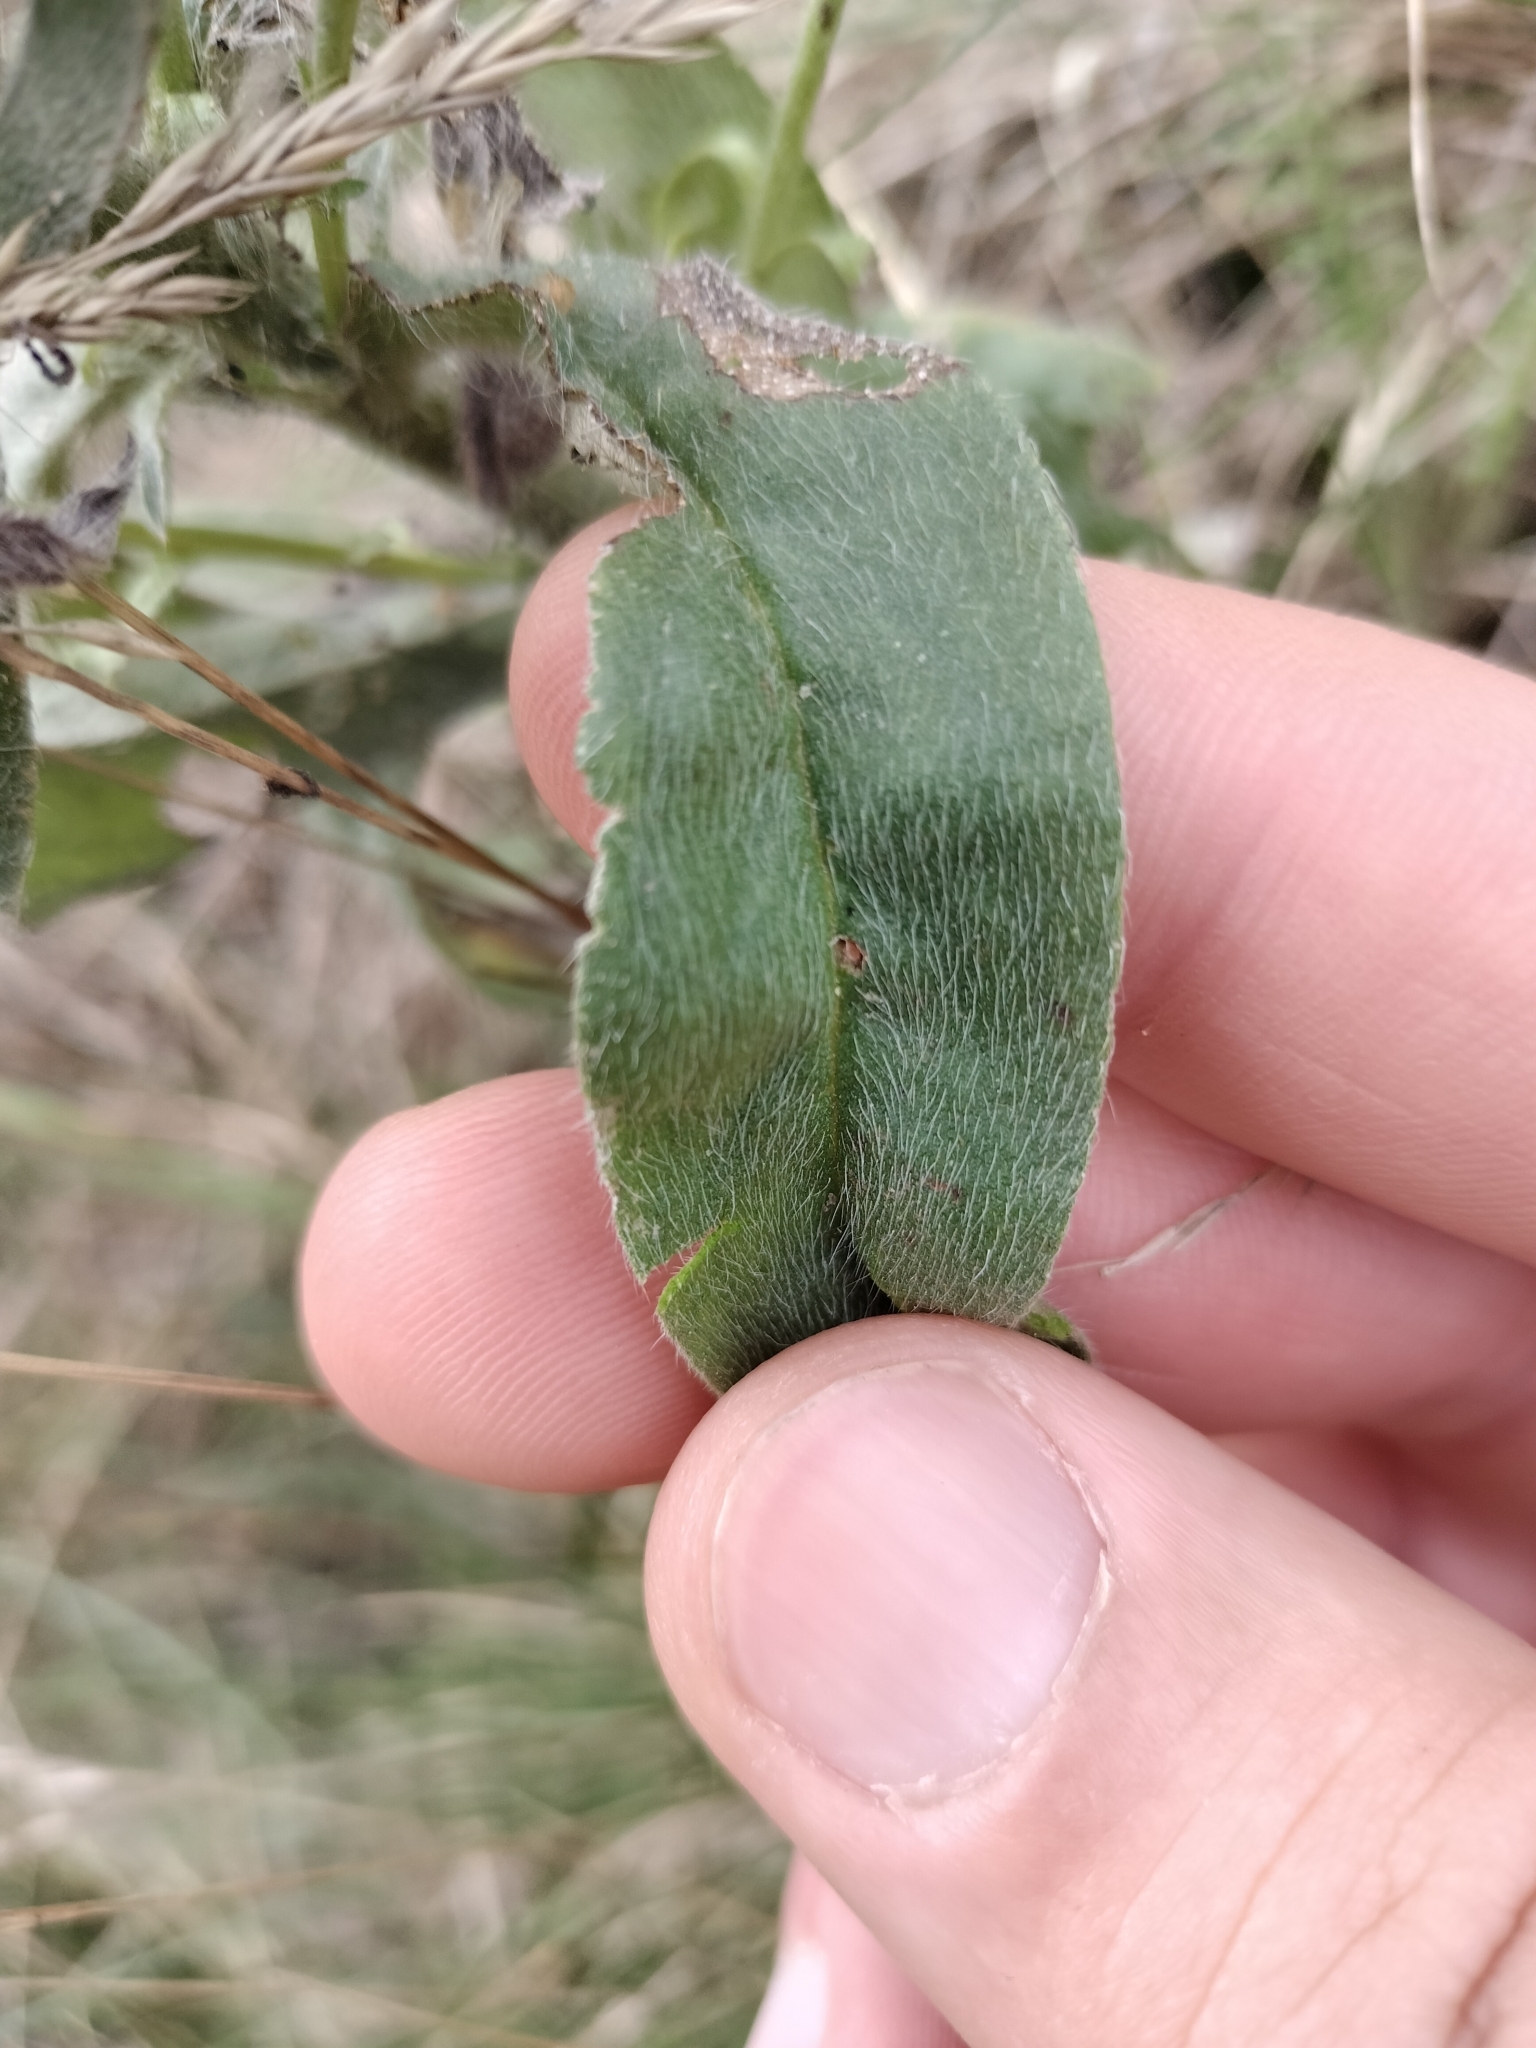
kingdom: Plantae
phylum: Tracheophyta
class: Magnoliopsida
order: Boraginales
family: Boraginaceae
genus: Echium
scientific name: Echium vulgare
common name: Common viper's bugloss
